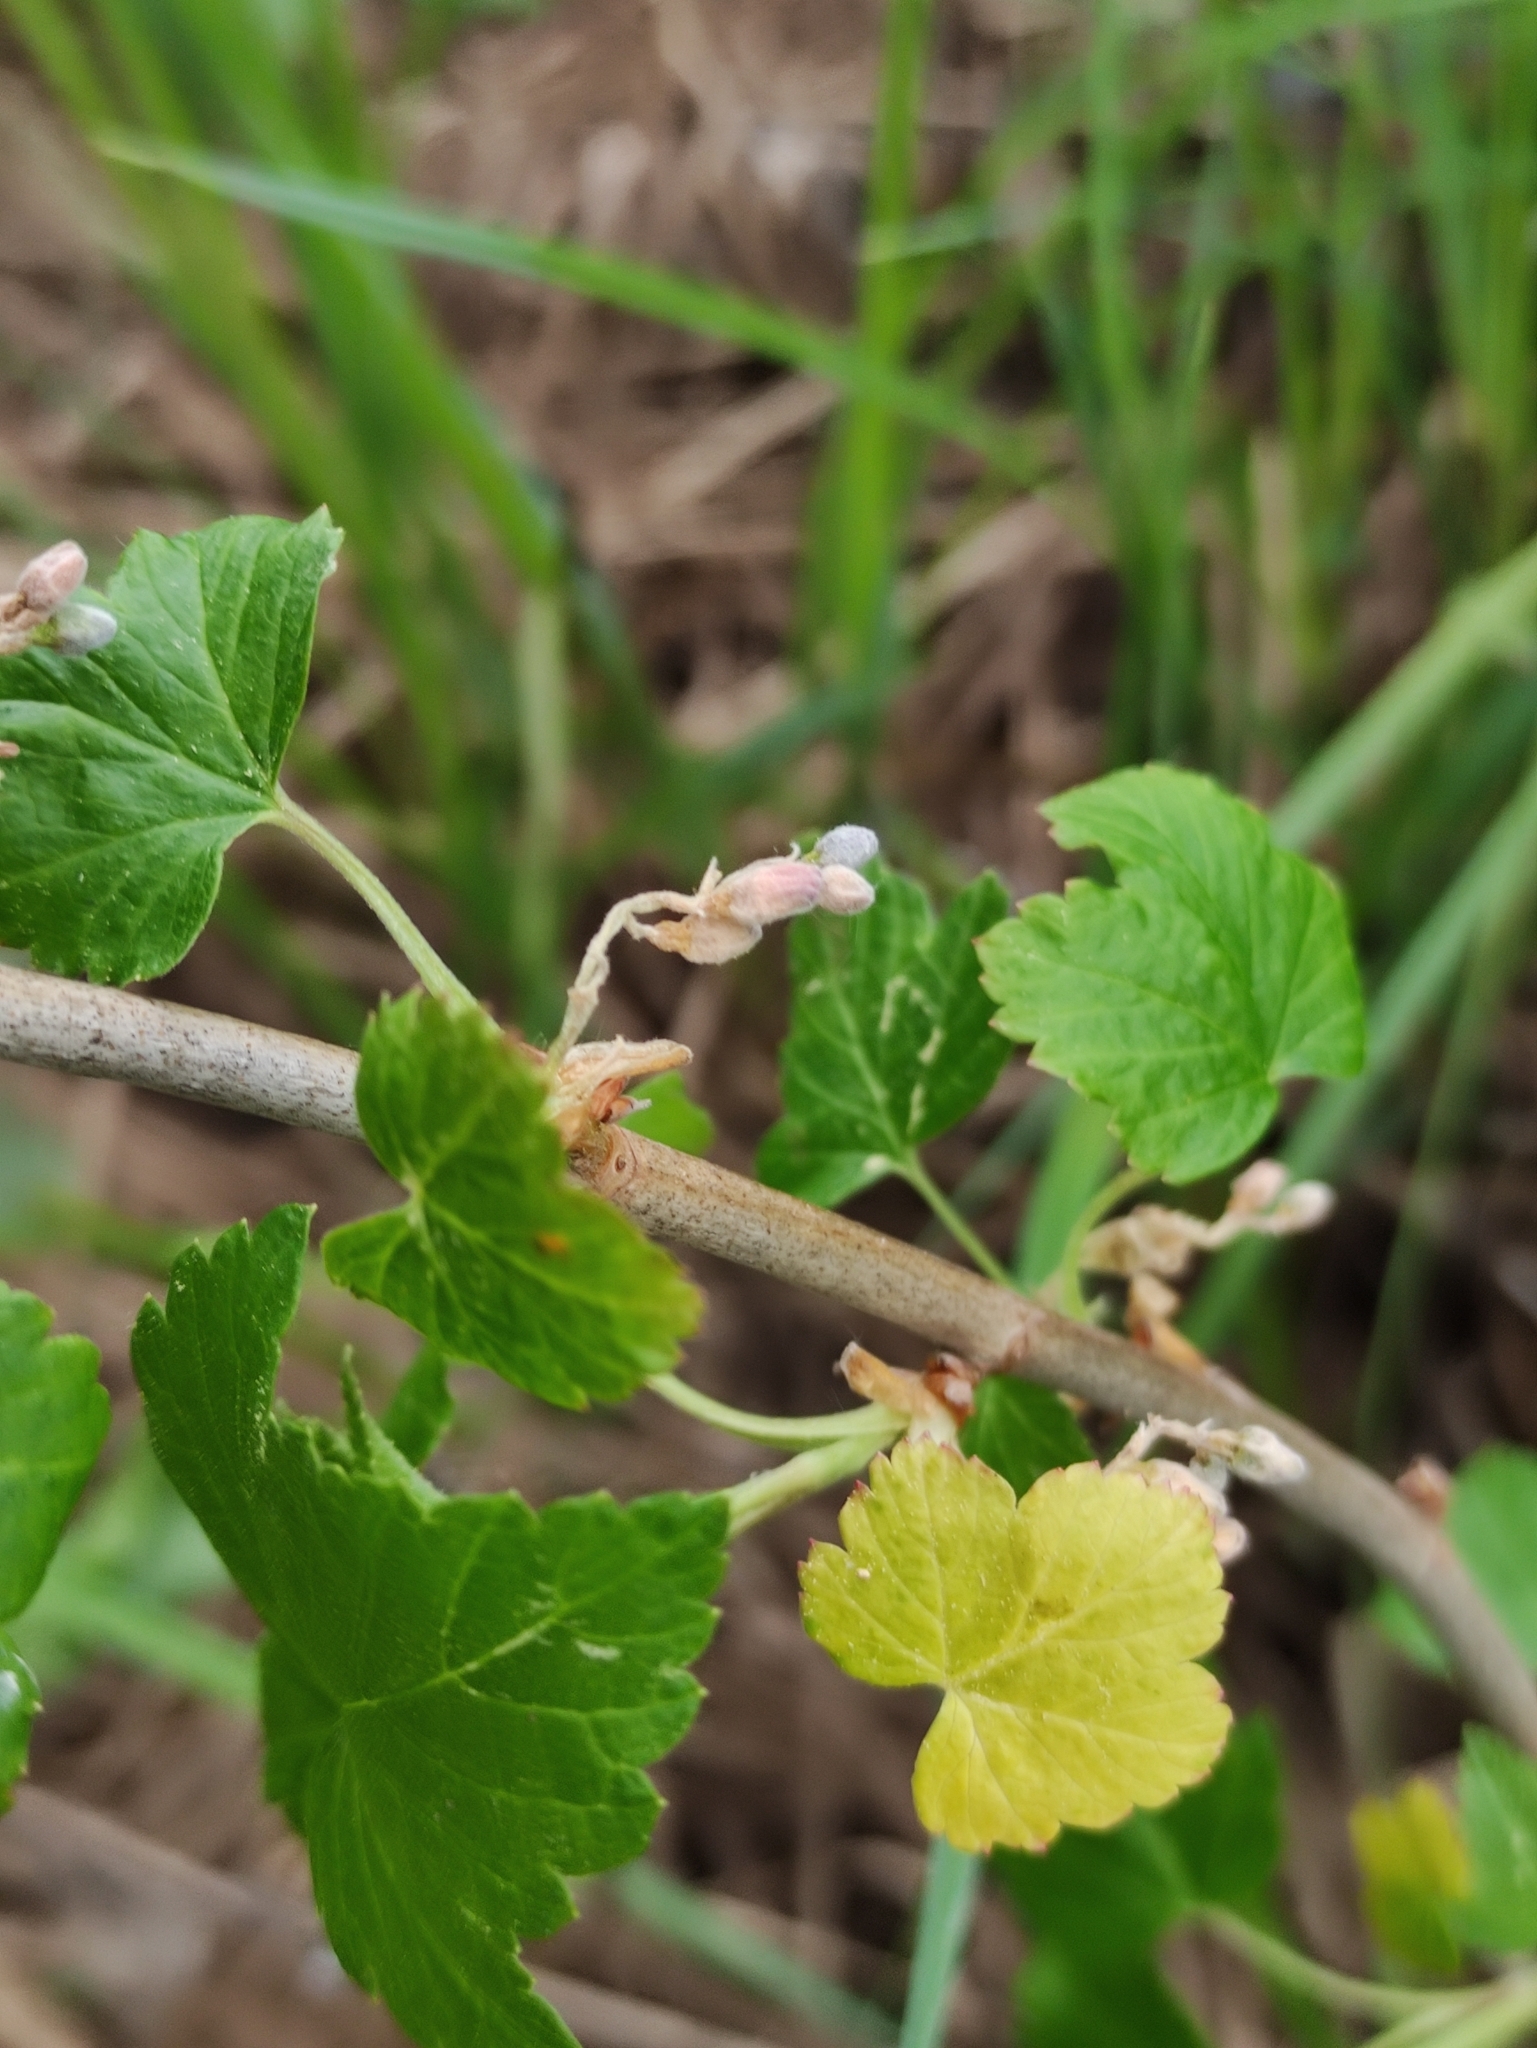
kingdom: Plantae
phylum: Tracheophyta
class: Magnoliopsida
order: Saxifragales
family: Grossulariaceae
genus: Ribes
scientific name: Ribes nigrum
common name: Black currant
